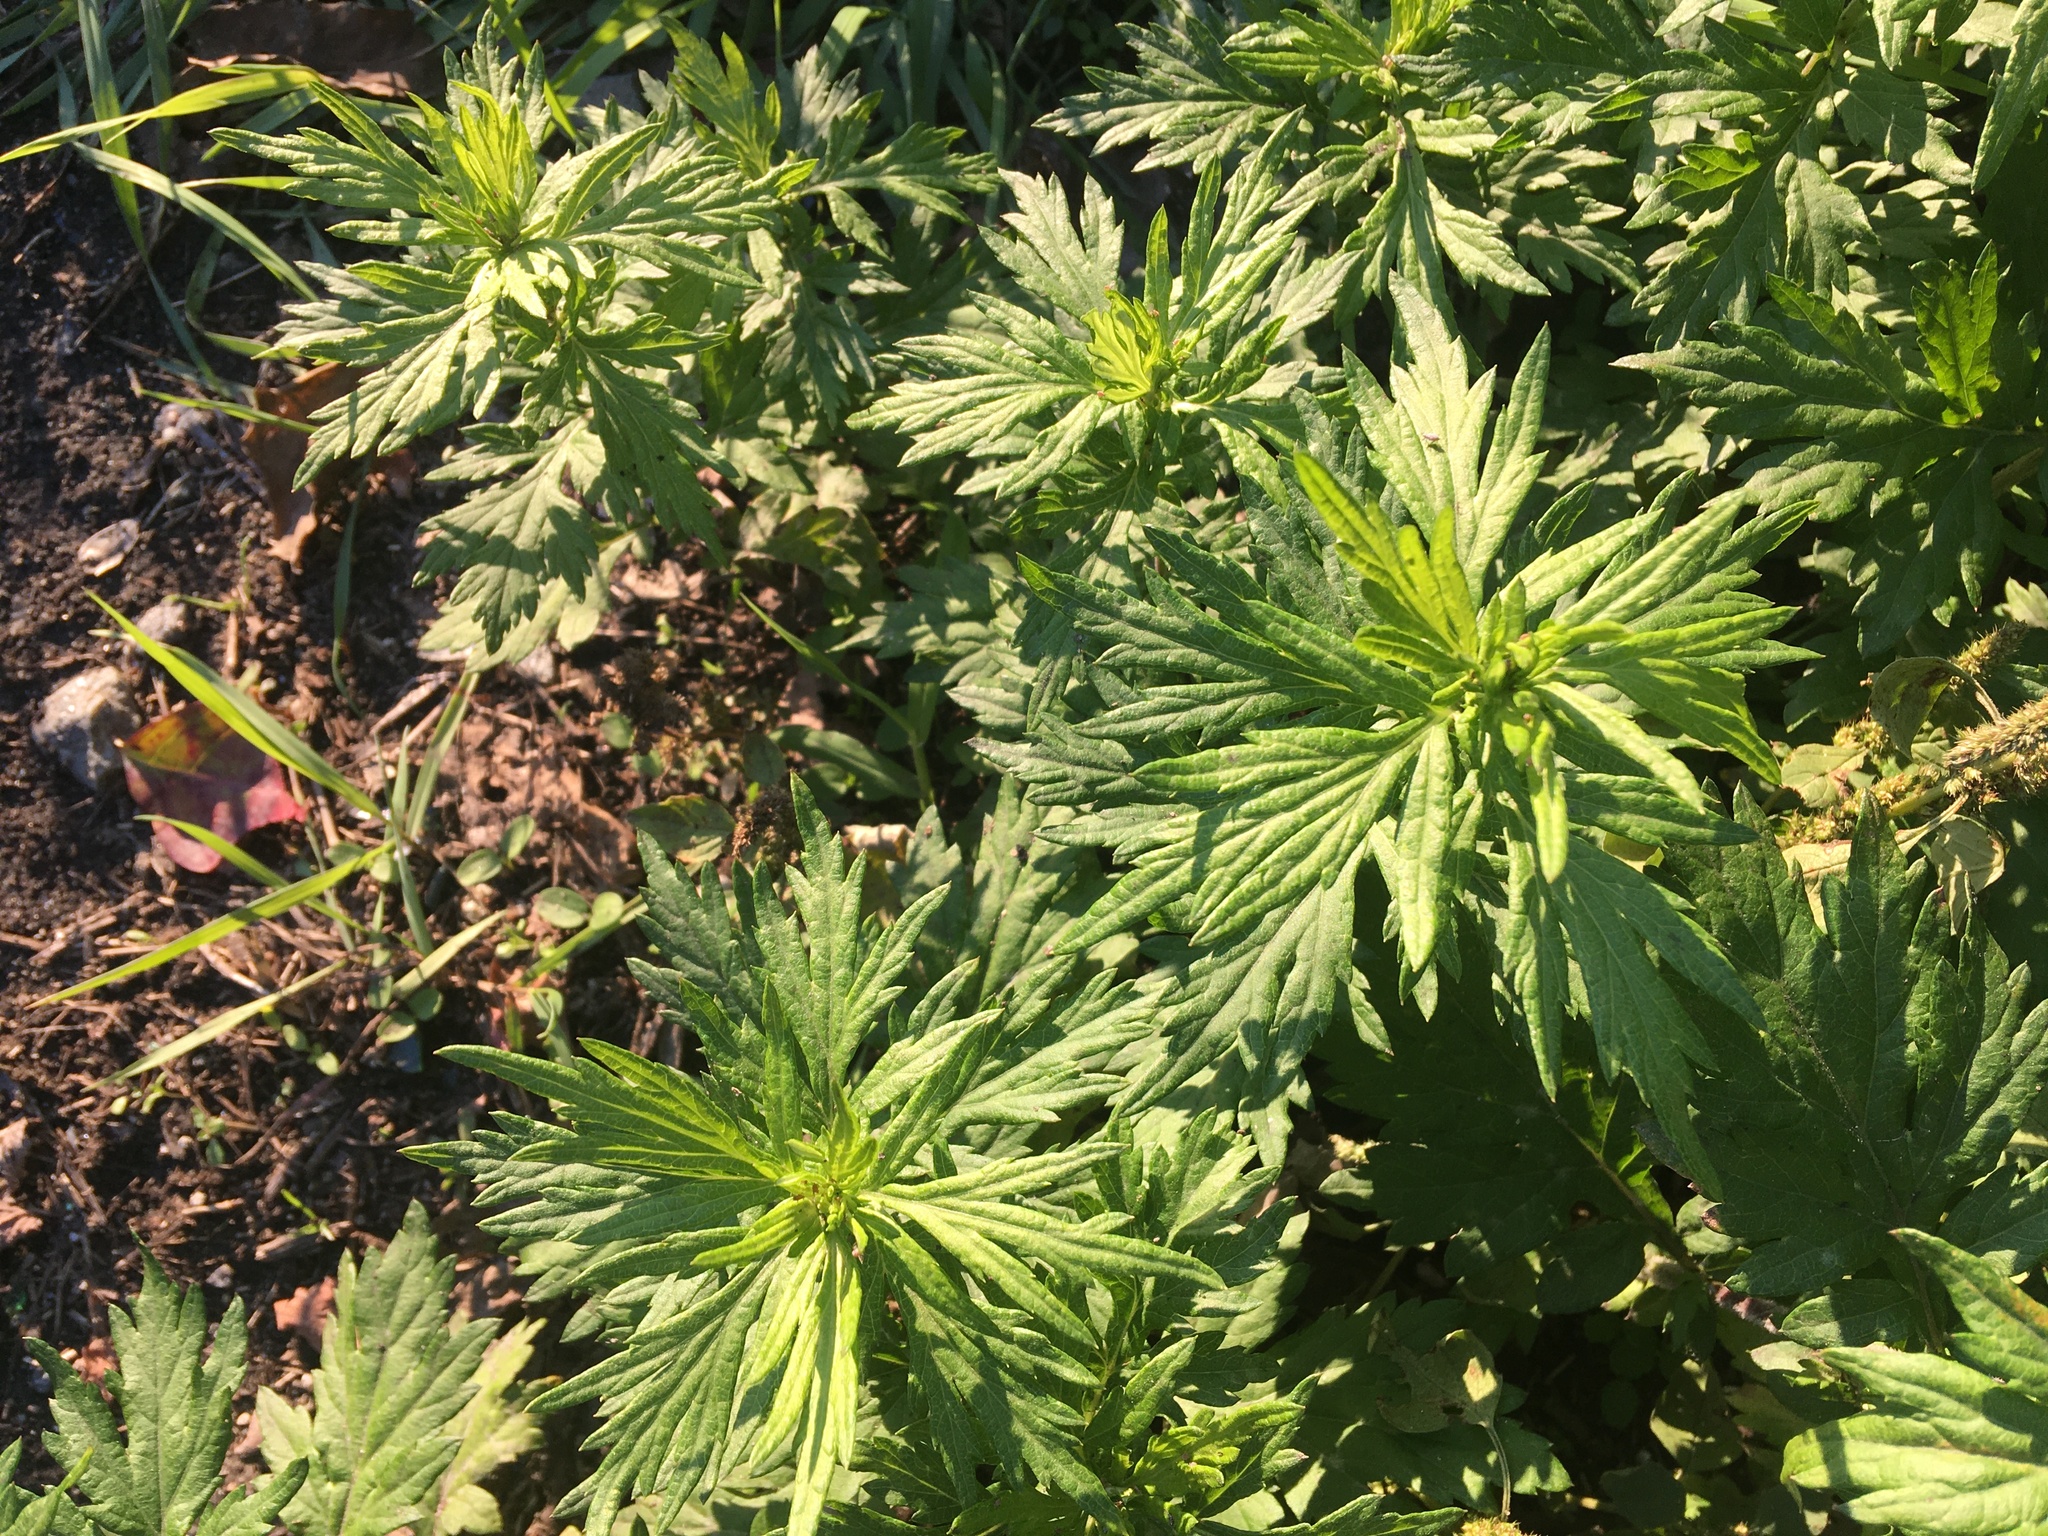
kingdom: Plantae
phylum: Tracheophyta
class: Magnoliopsida
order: Asterales
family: Asteraceae
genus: Artemisia
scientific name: Artemisia vulgaris
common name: Mugwort
